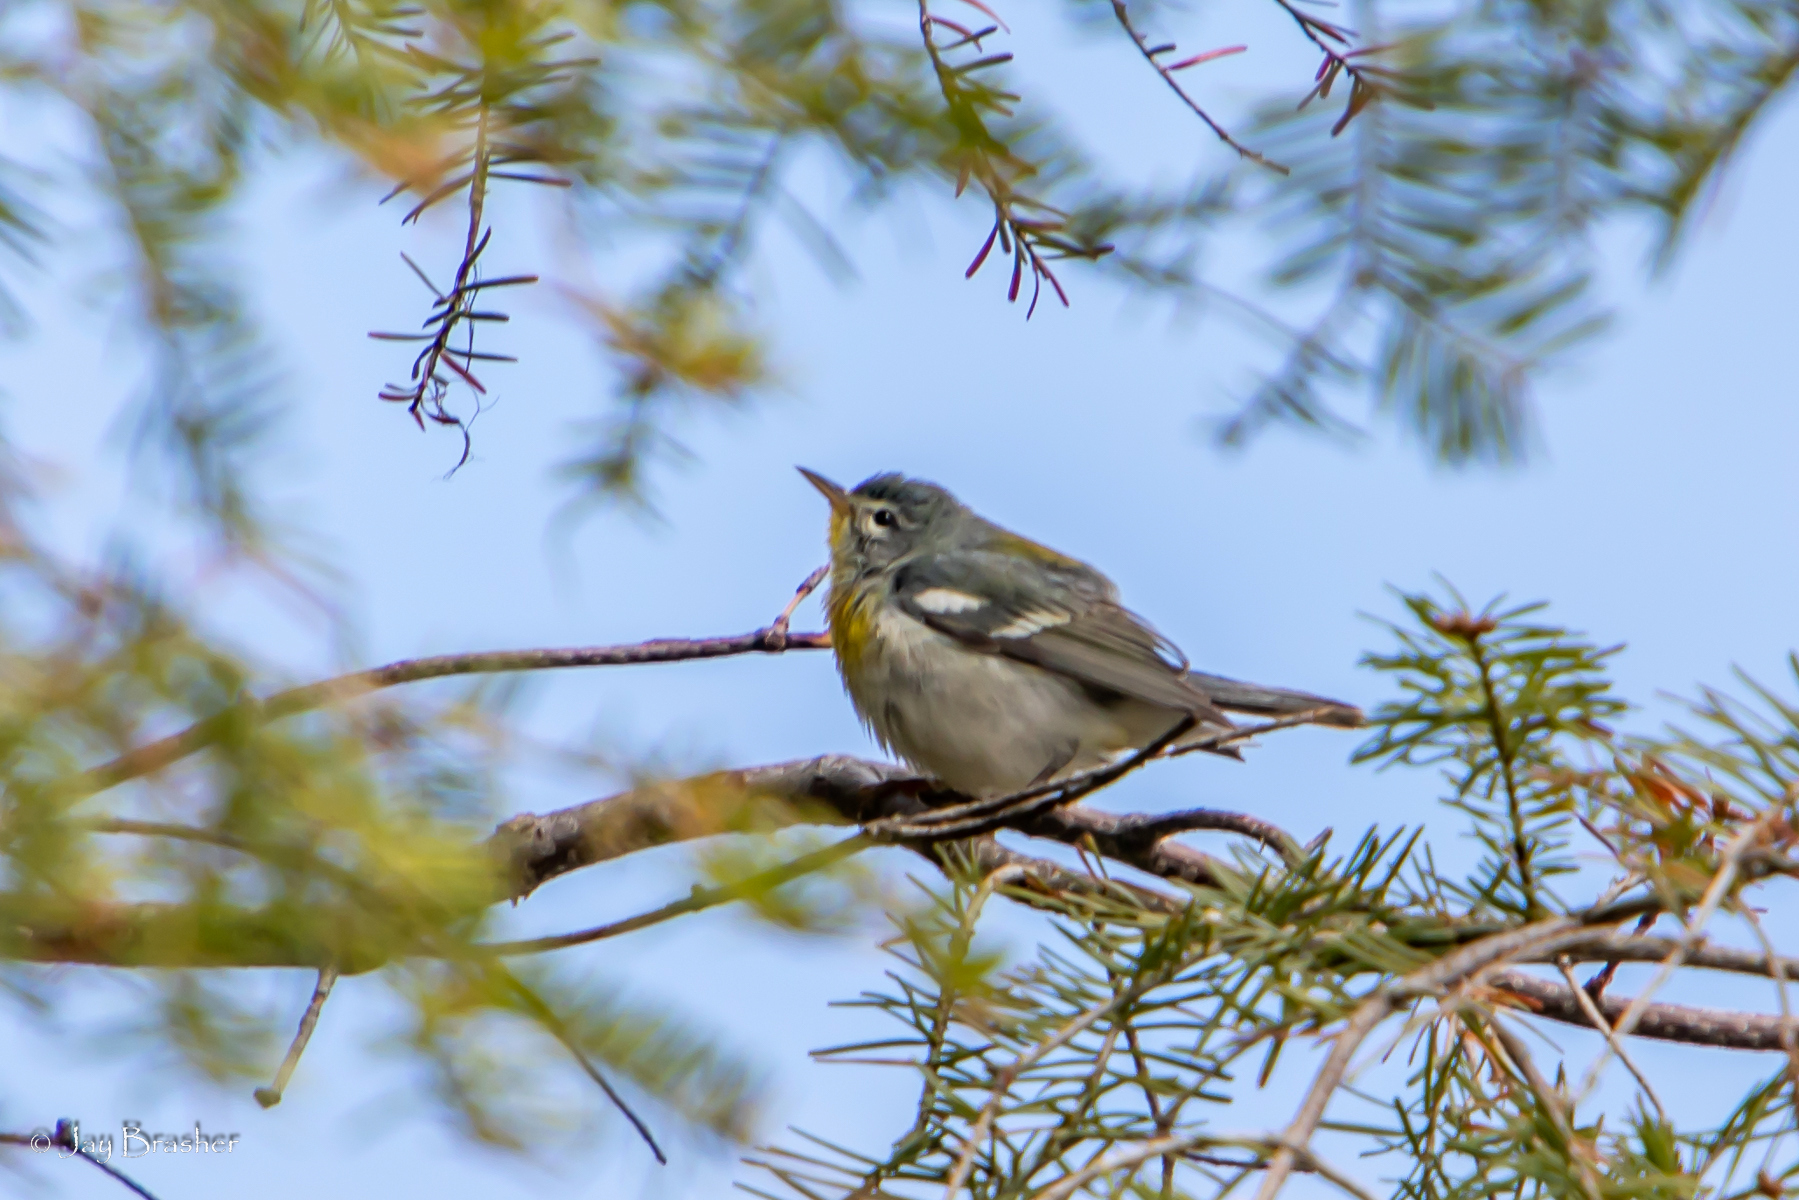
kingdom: Animalia
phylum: Chordata
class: Aves
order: Passeriformes
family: Parulidae
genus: Setophaga
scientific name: Setophaga americana
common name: Northern parula
